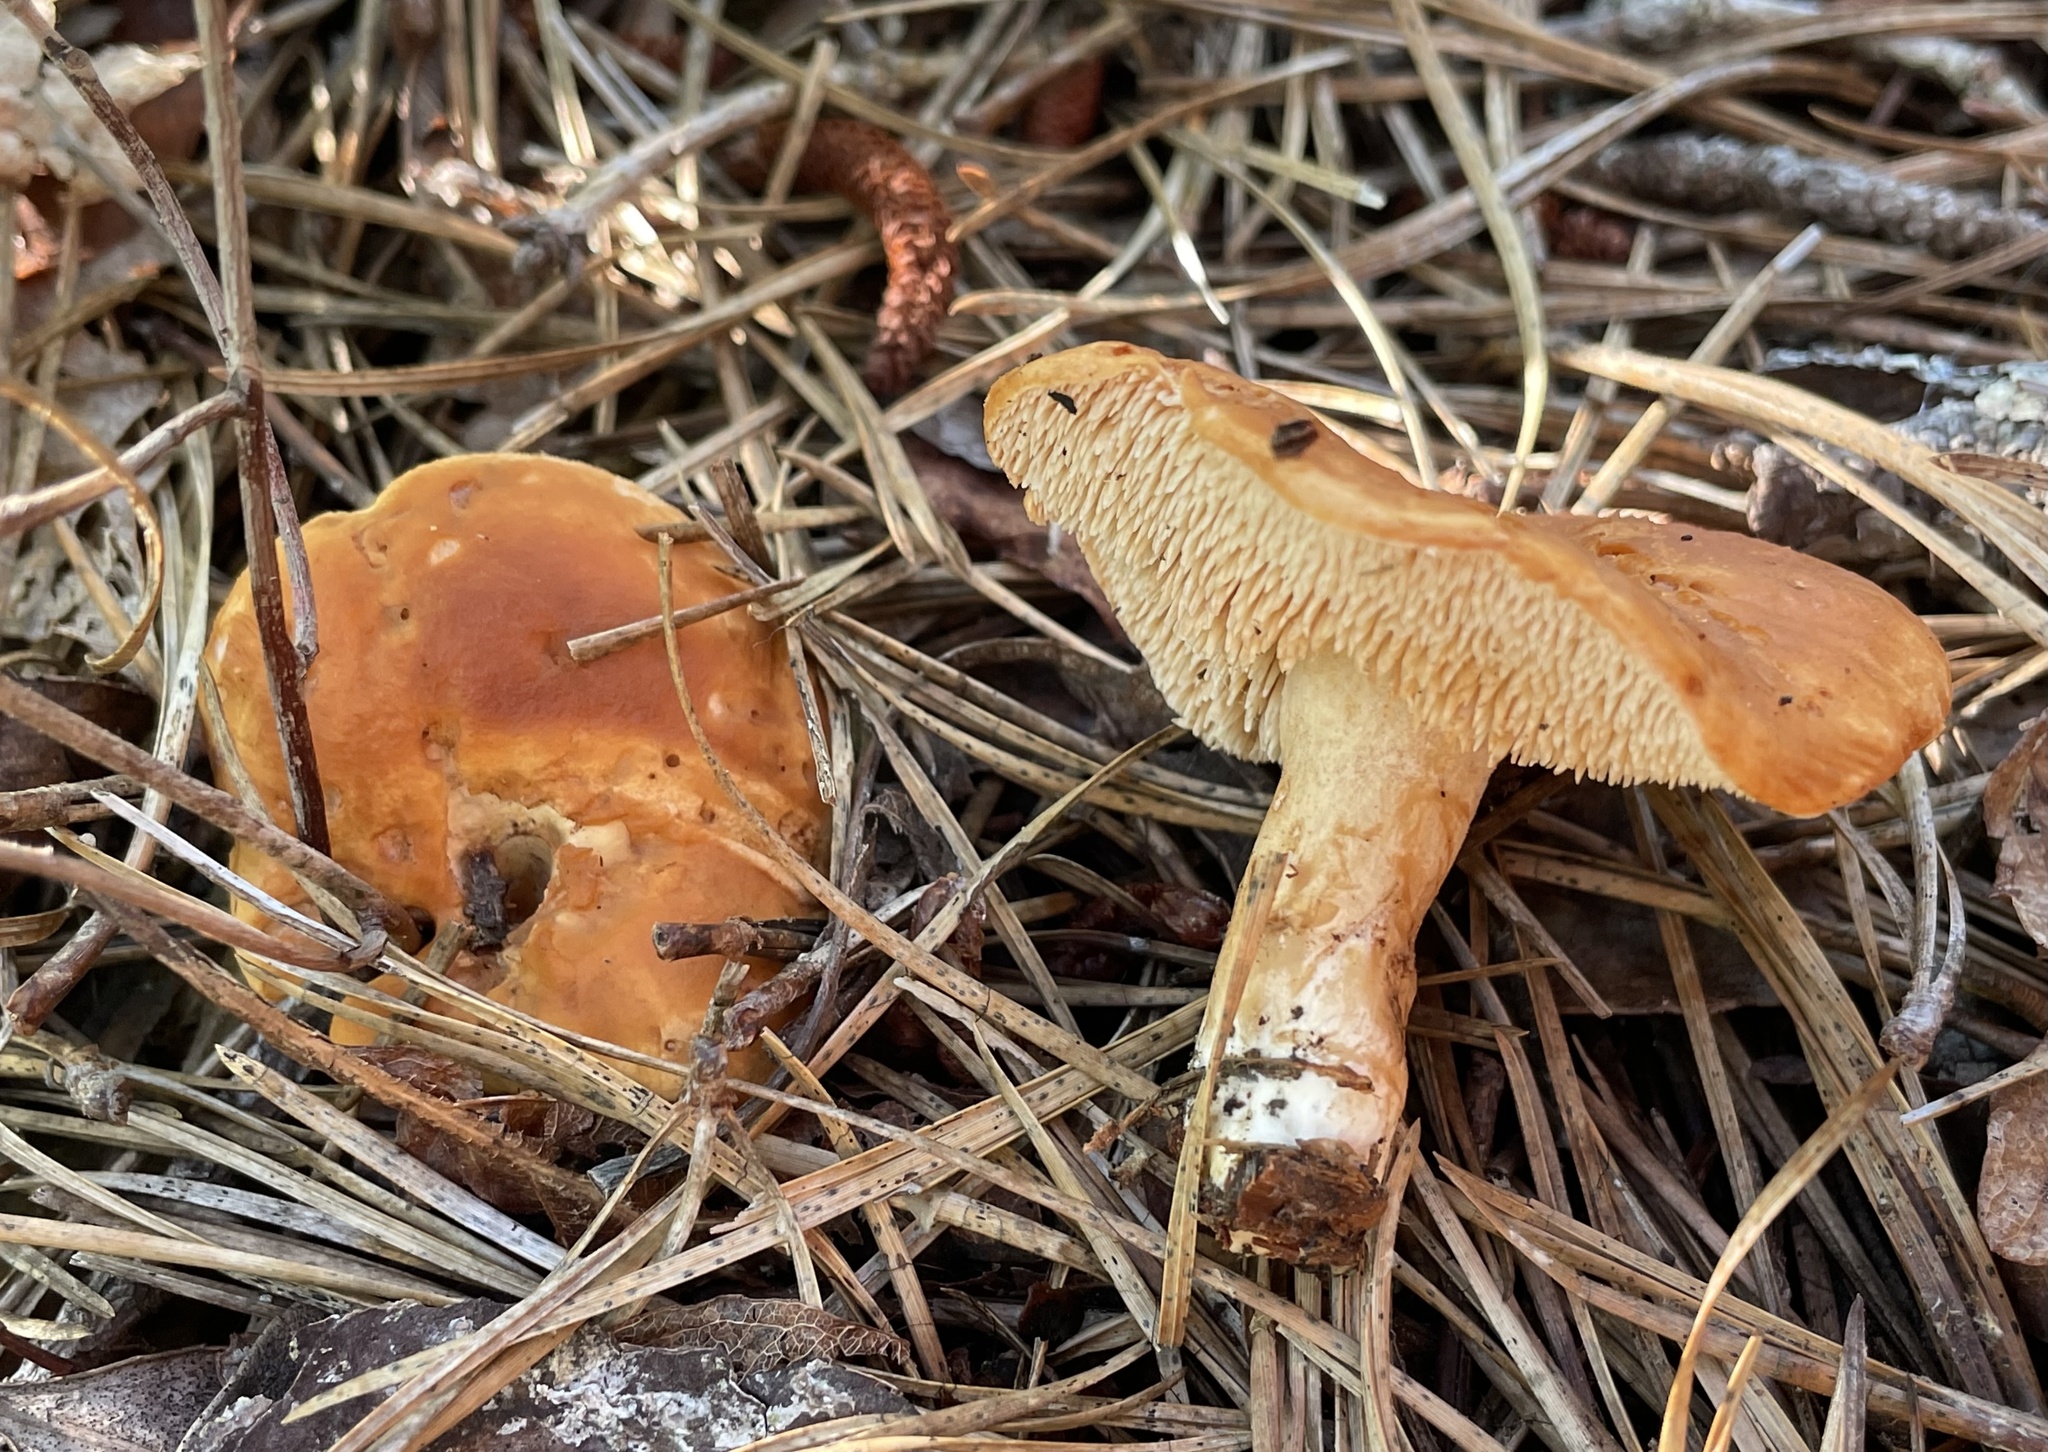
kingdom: Fungi
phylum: Basidiomycota
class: Agaricomycetes
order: Cantharellales
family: Hydnaceae
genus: Hydnum
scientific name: Hydnum umbilicatum
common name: Umbilicate hedgehog
